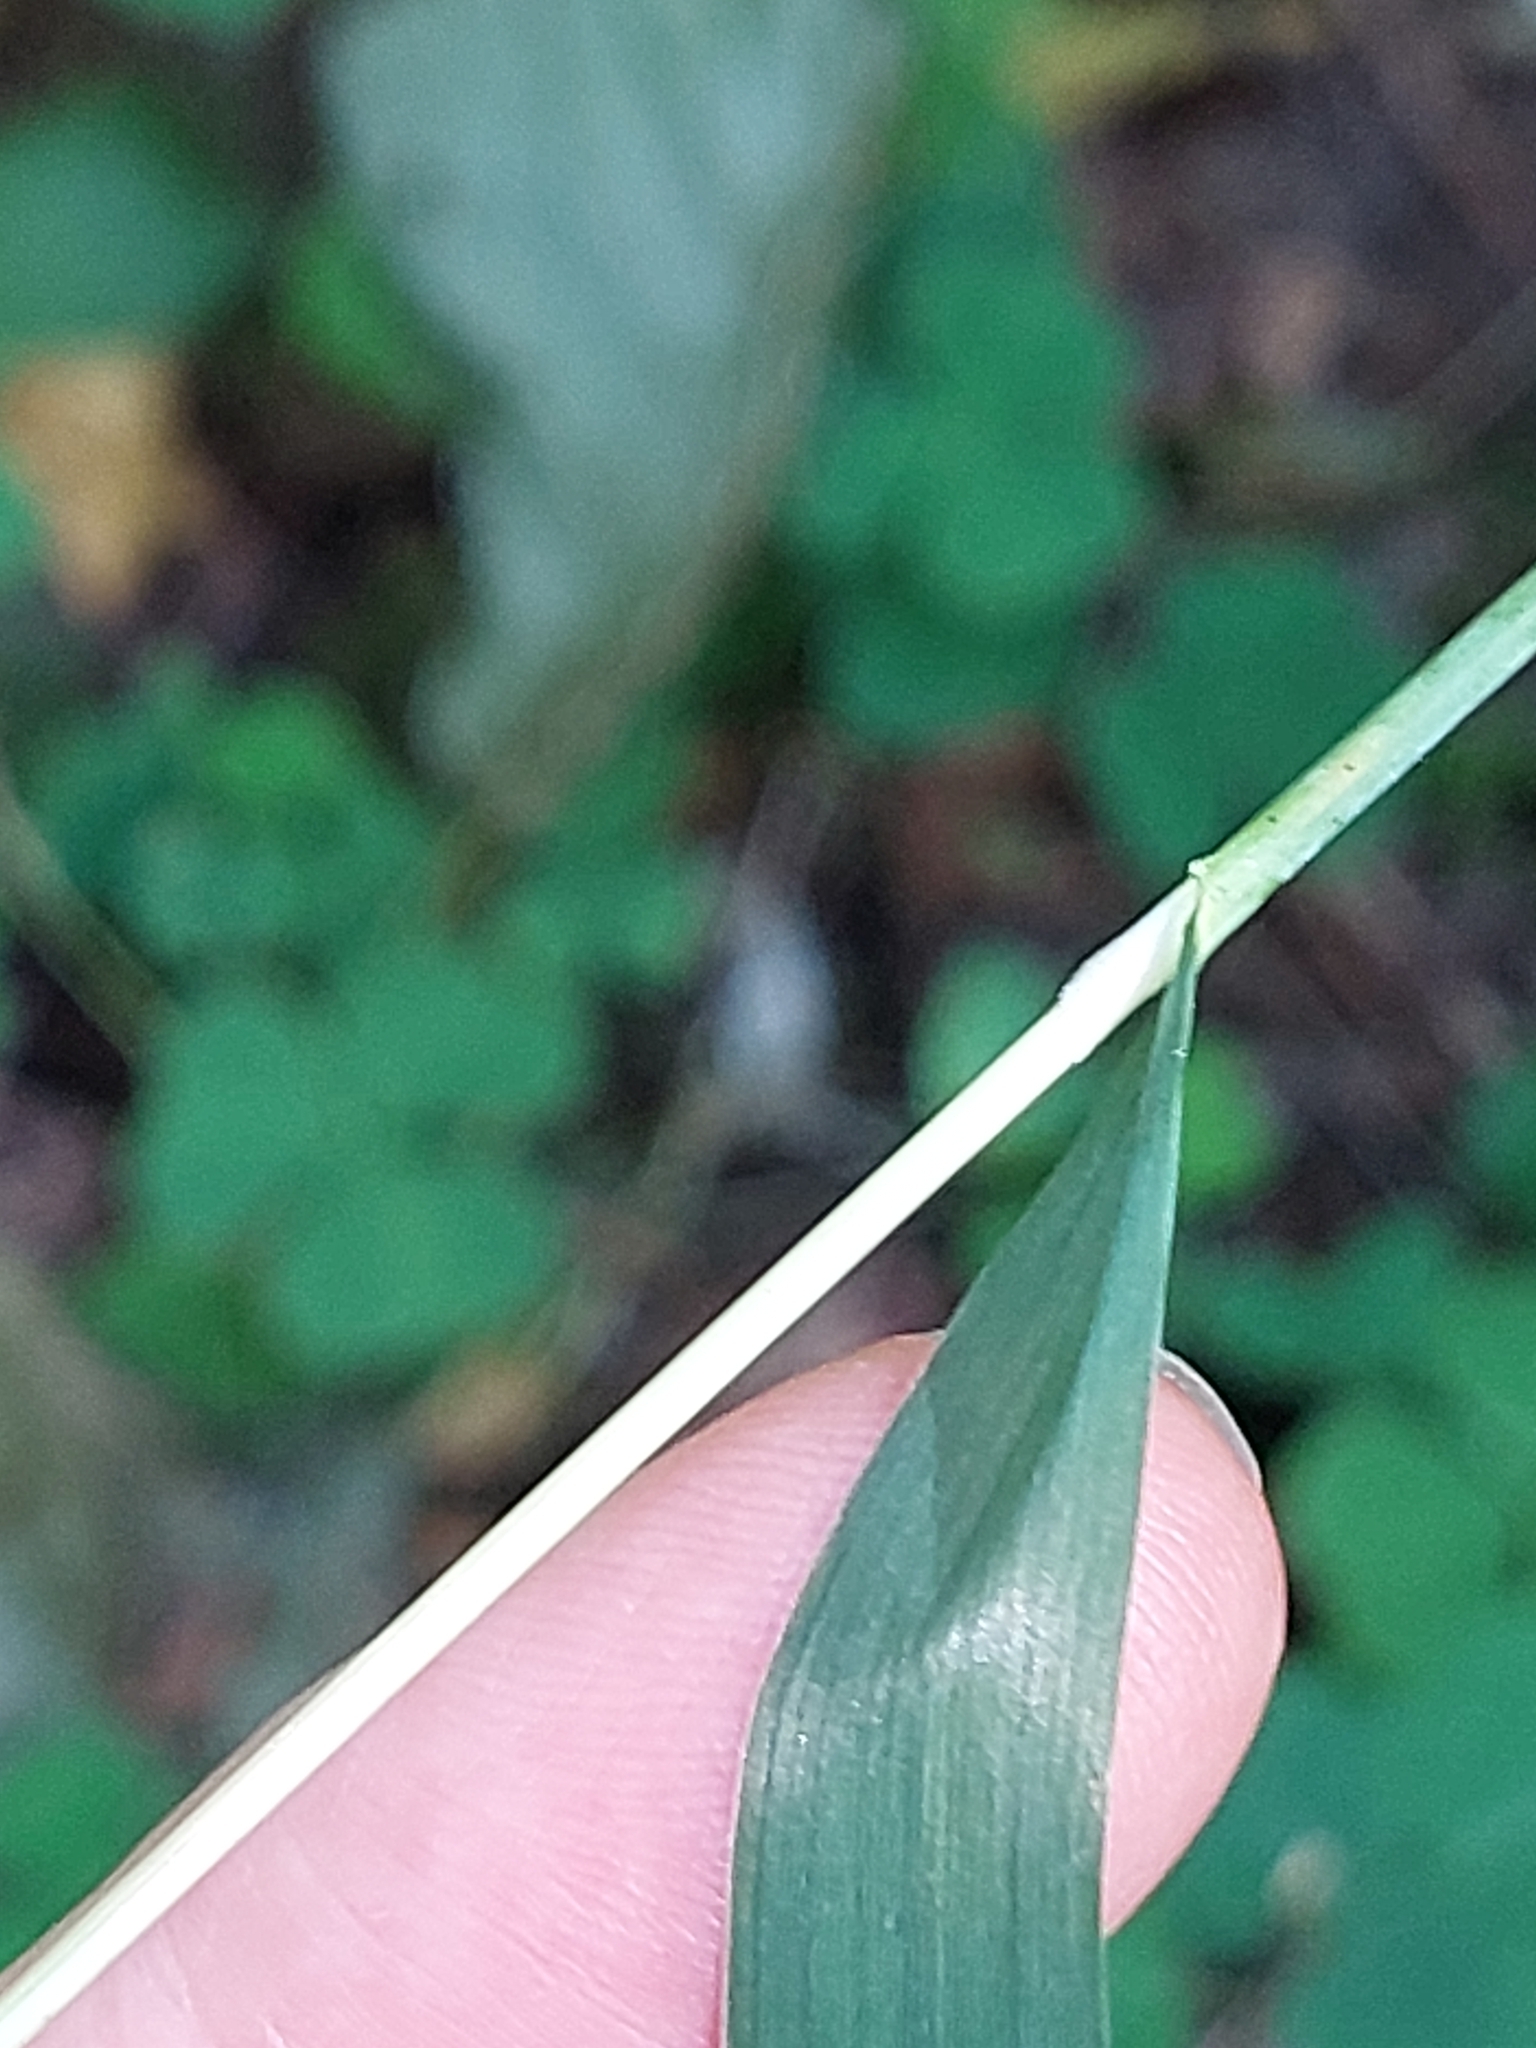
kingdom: Plantae
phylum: Tracheophyta
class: Liliopsida
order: Poales
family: Poaceae
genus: Milium
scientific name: Milium effusum
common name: Wood millet
